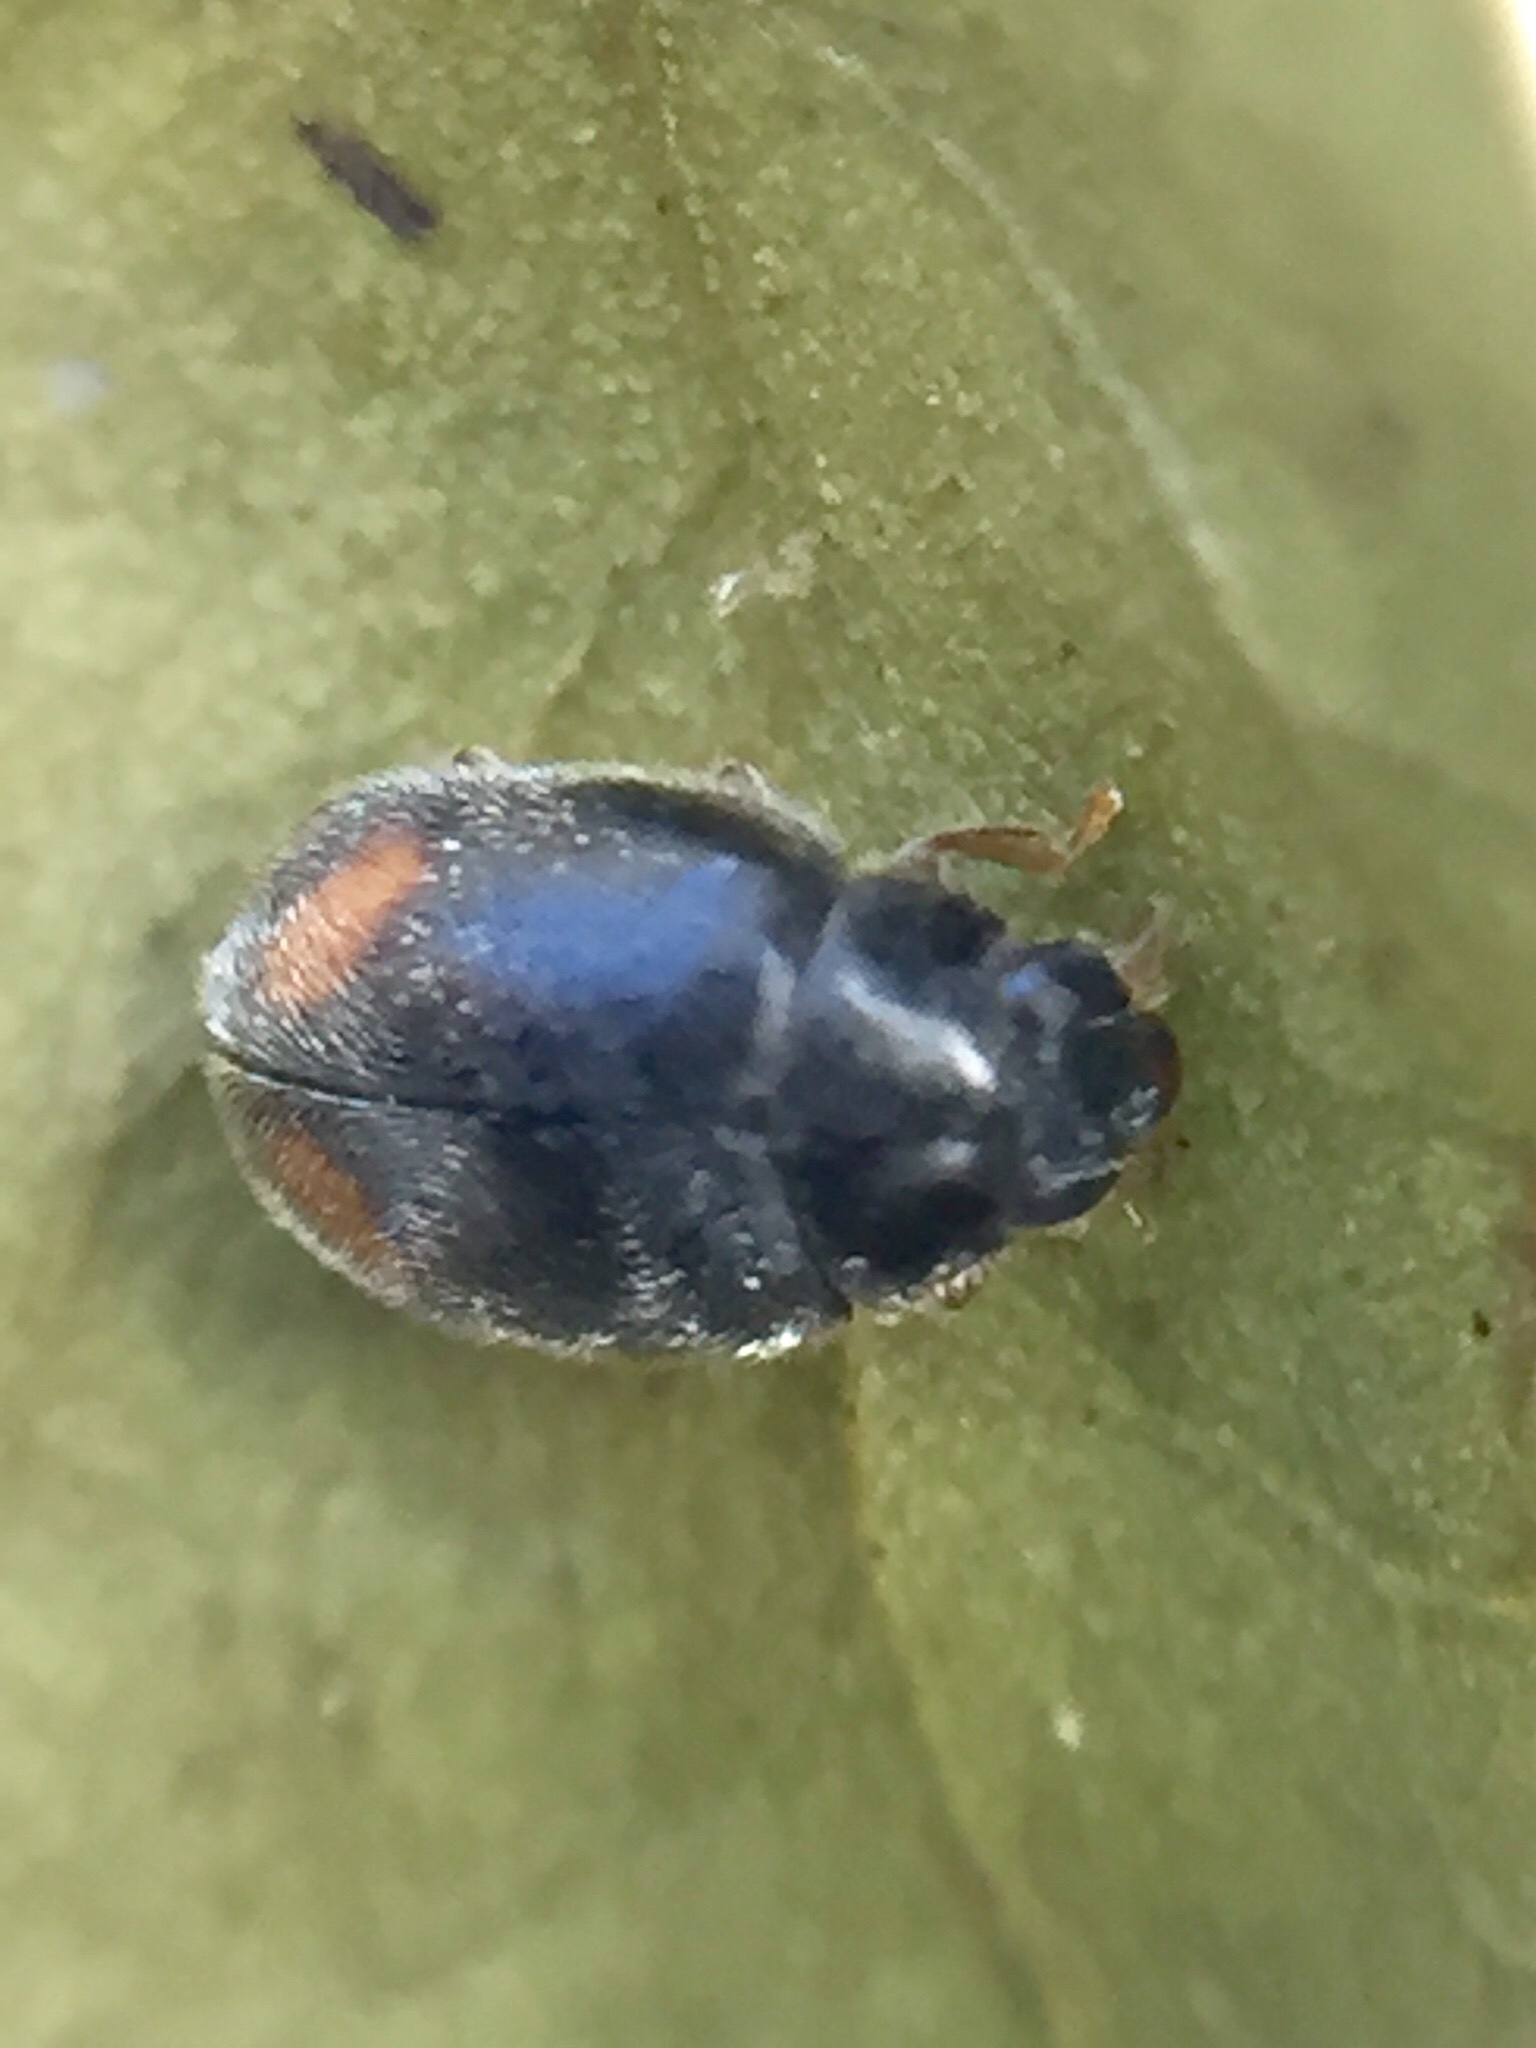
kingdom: Animalia
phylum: Arthropoda
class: Insecta
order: Coleoptera
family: Coccinellidae
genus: Nephus
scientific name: Nephus binaevatus
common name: Ladybird beetle
